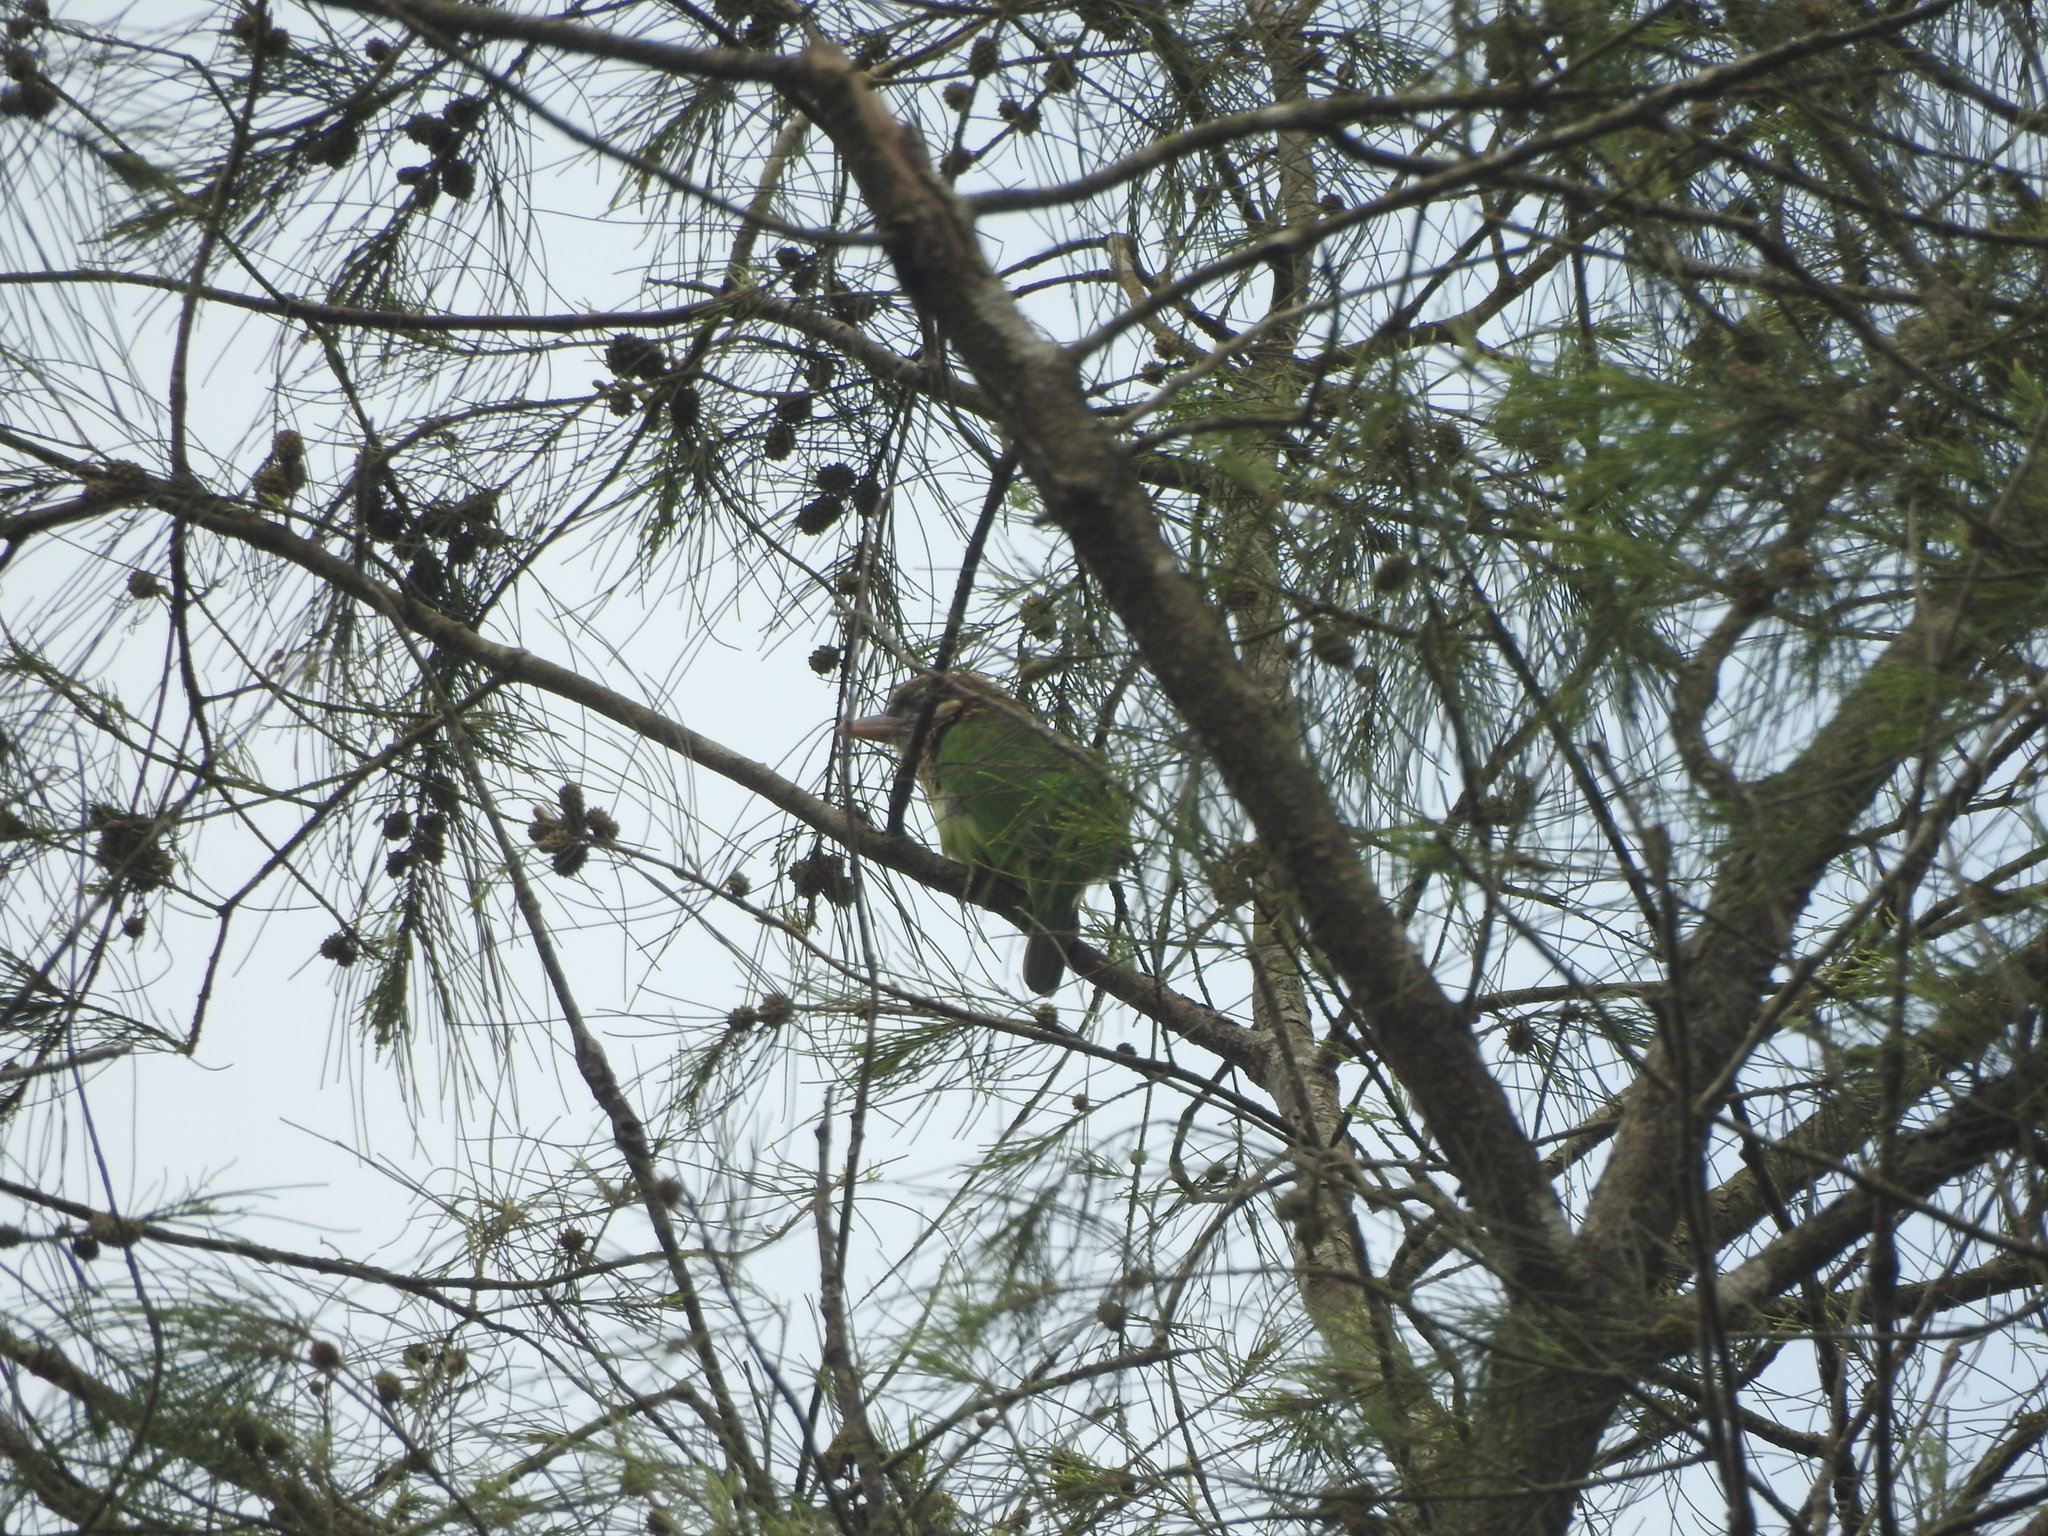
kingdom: Animalia
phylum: Chordata
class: Aves
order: Piciformes
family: Megalaimidae
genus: Psilopogon
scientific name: Psilopogon viridis
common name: White-cheeked barbet
